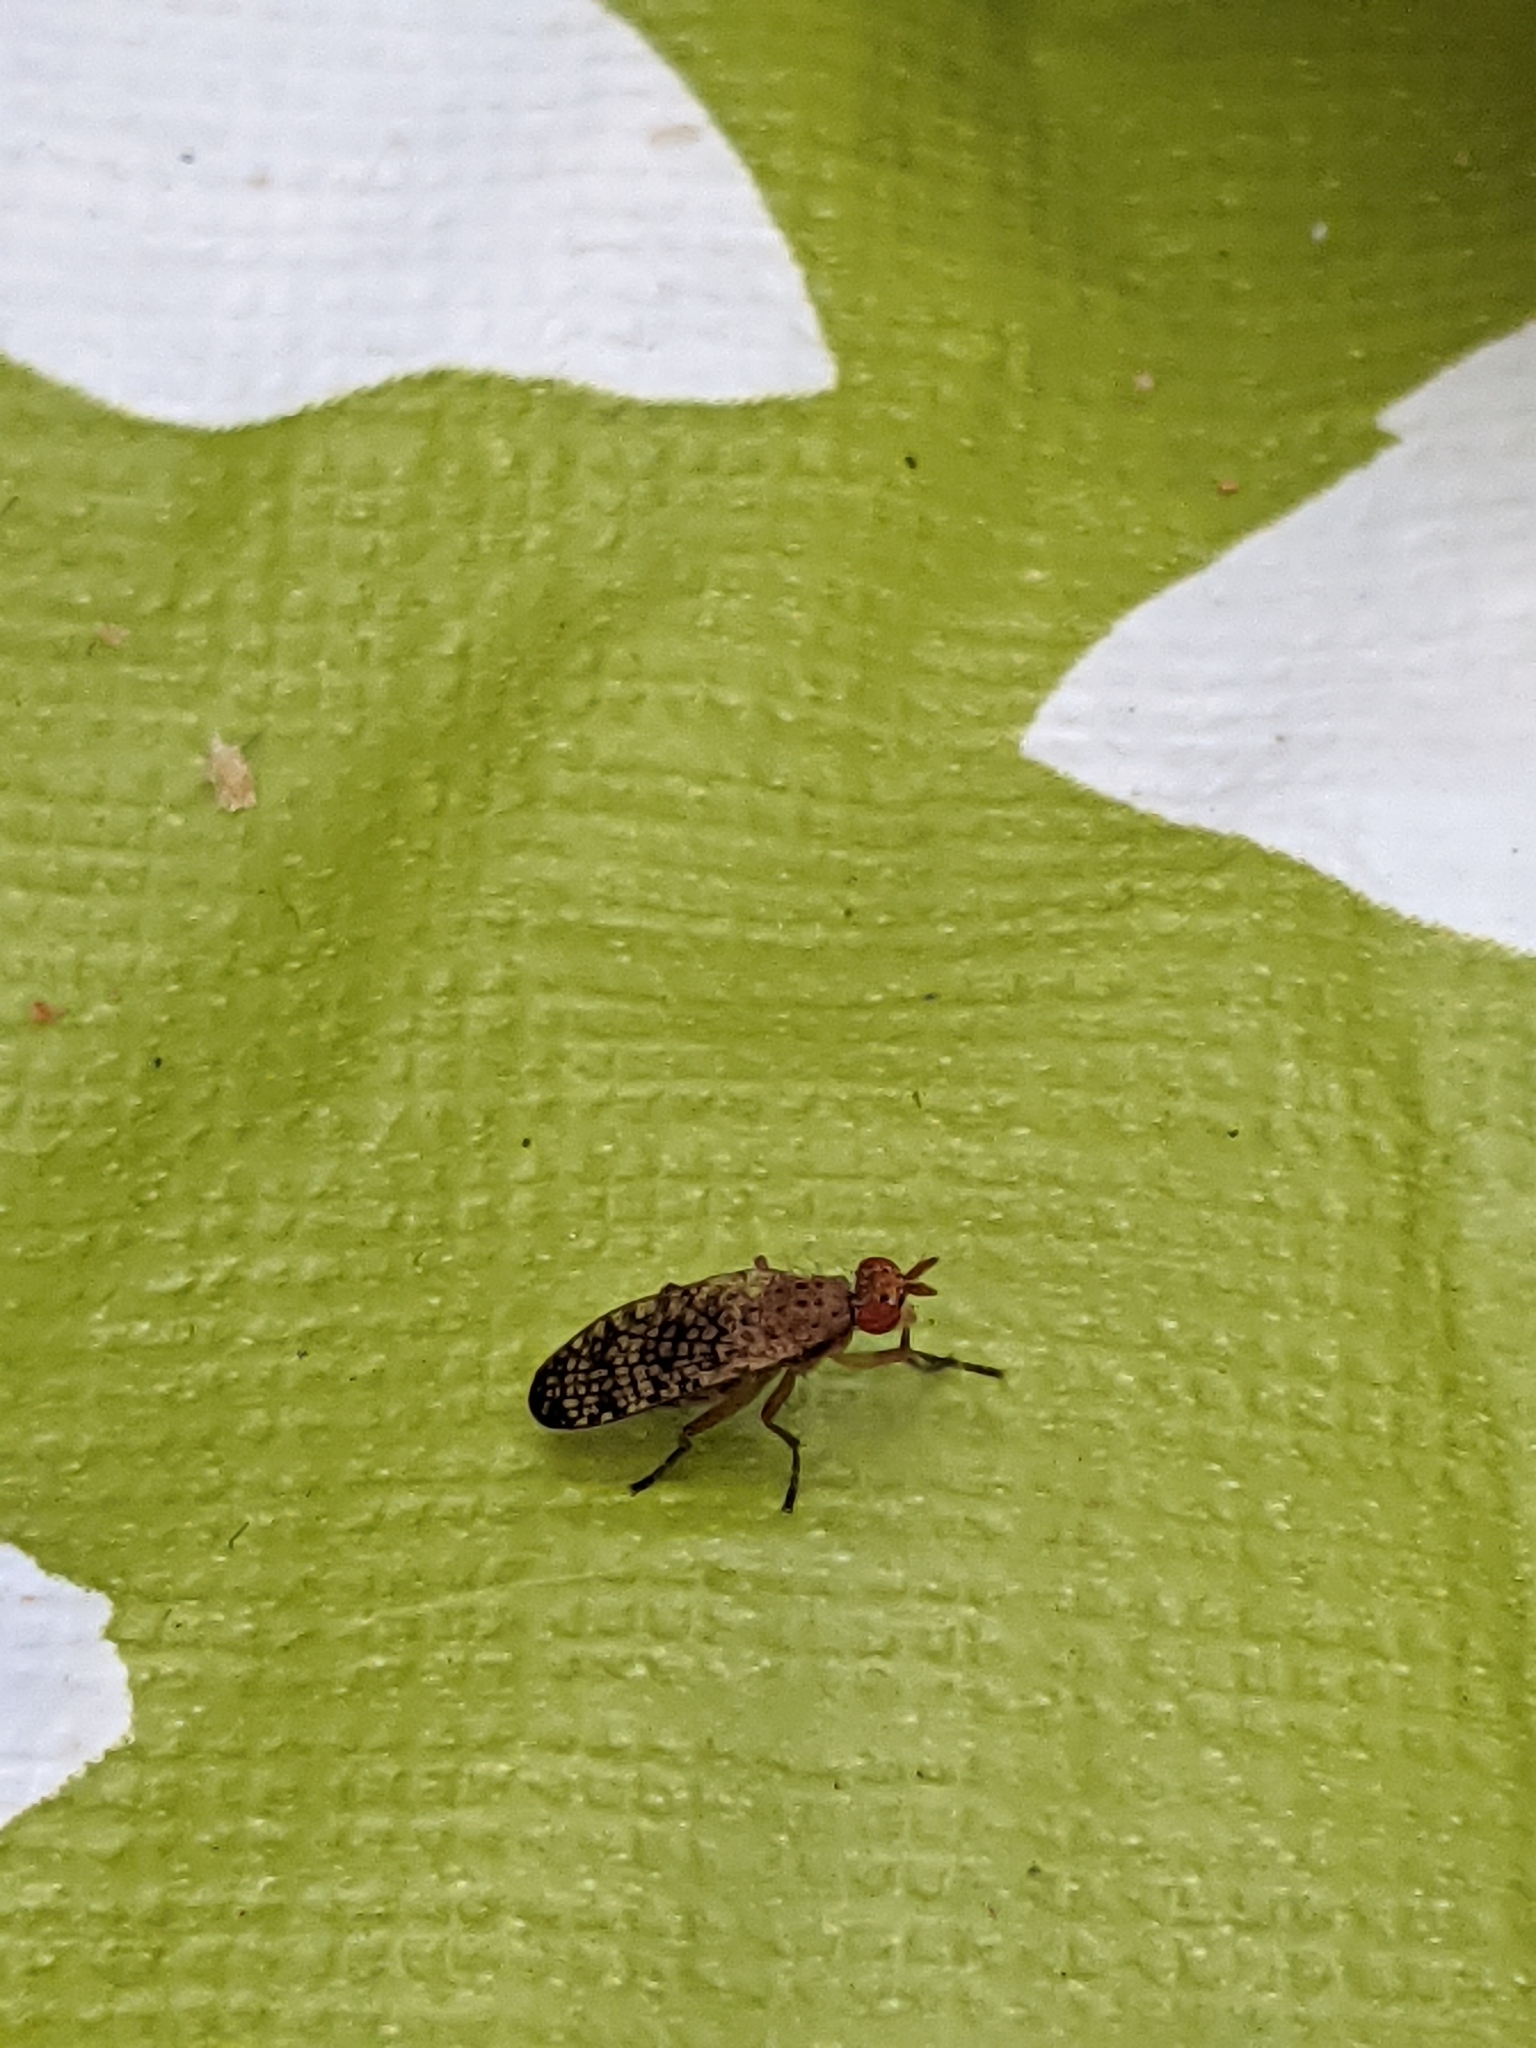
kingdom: Animalia
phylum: Arthropoda
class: Insecta
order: Diptera
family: Sciomyzidae
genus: Euthycera
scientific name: Euthycera flavescens
